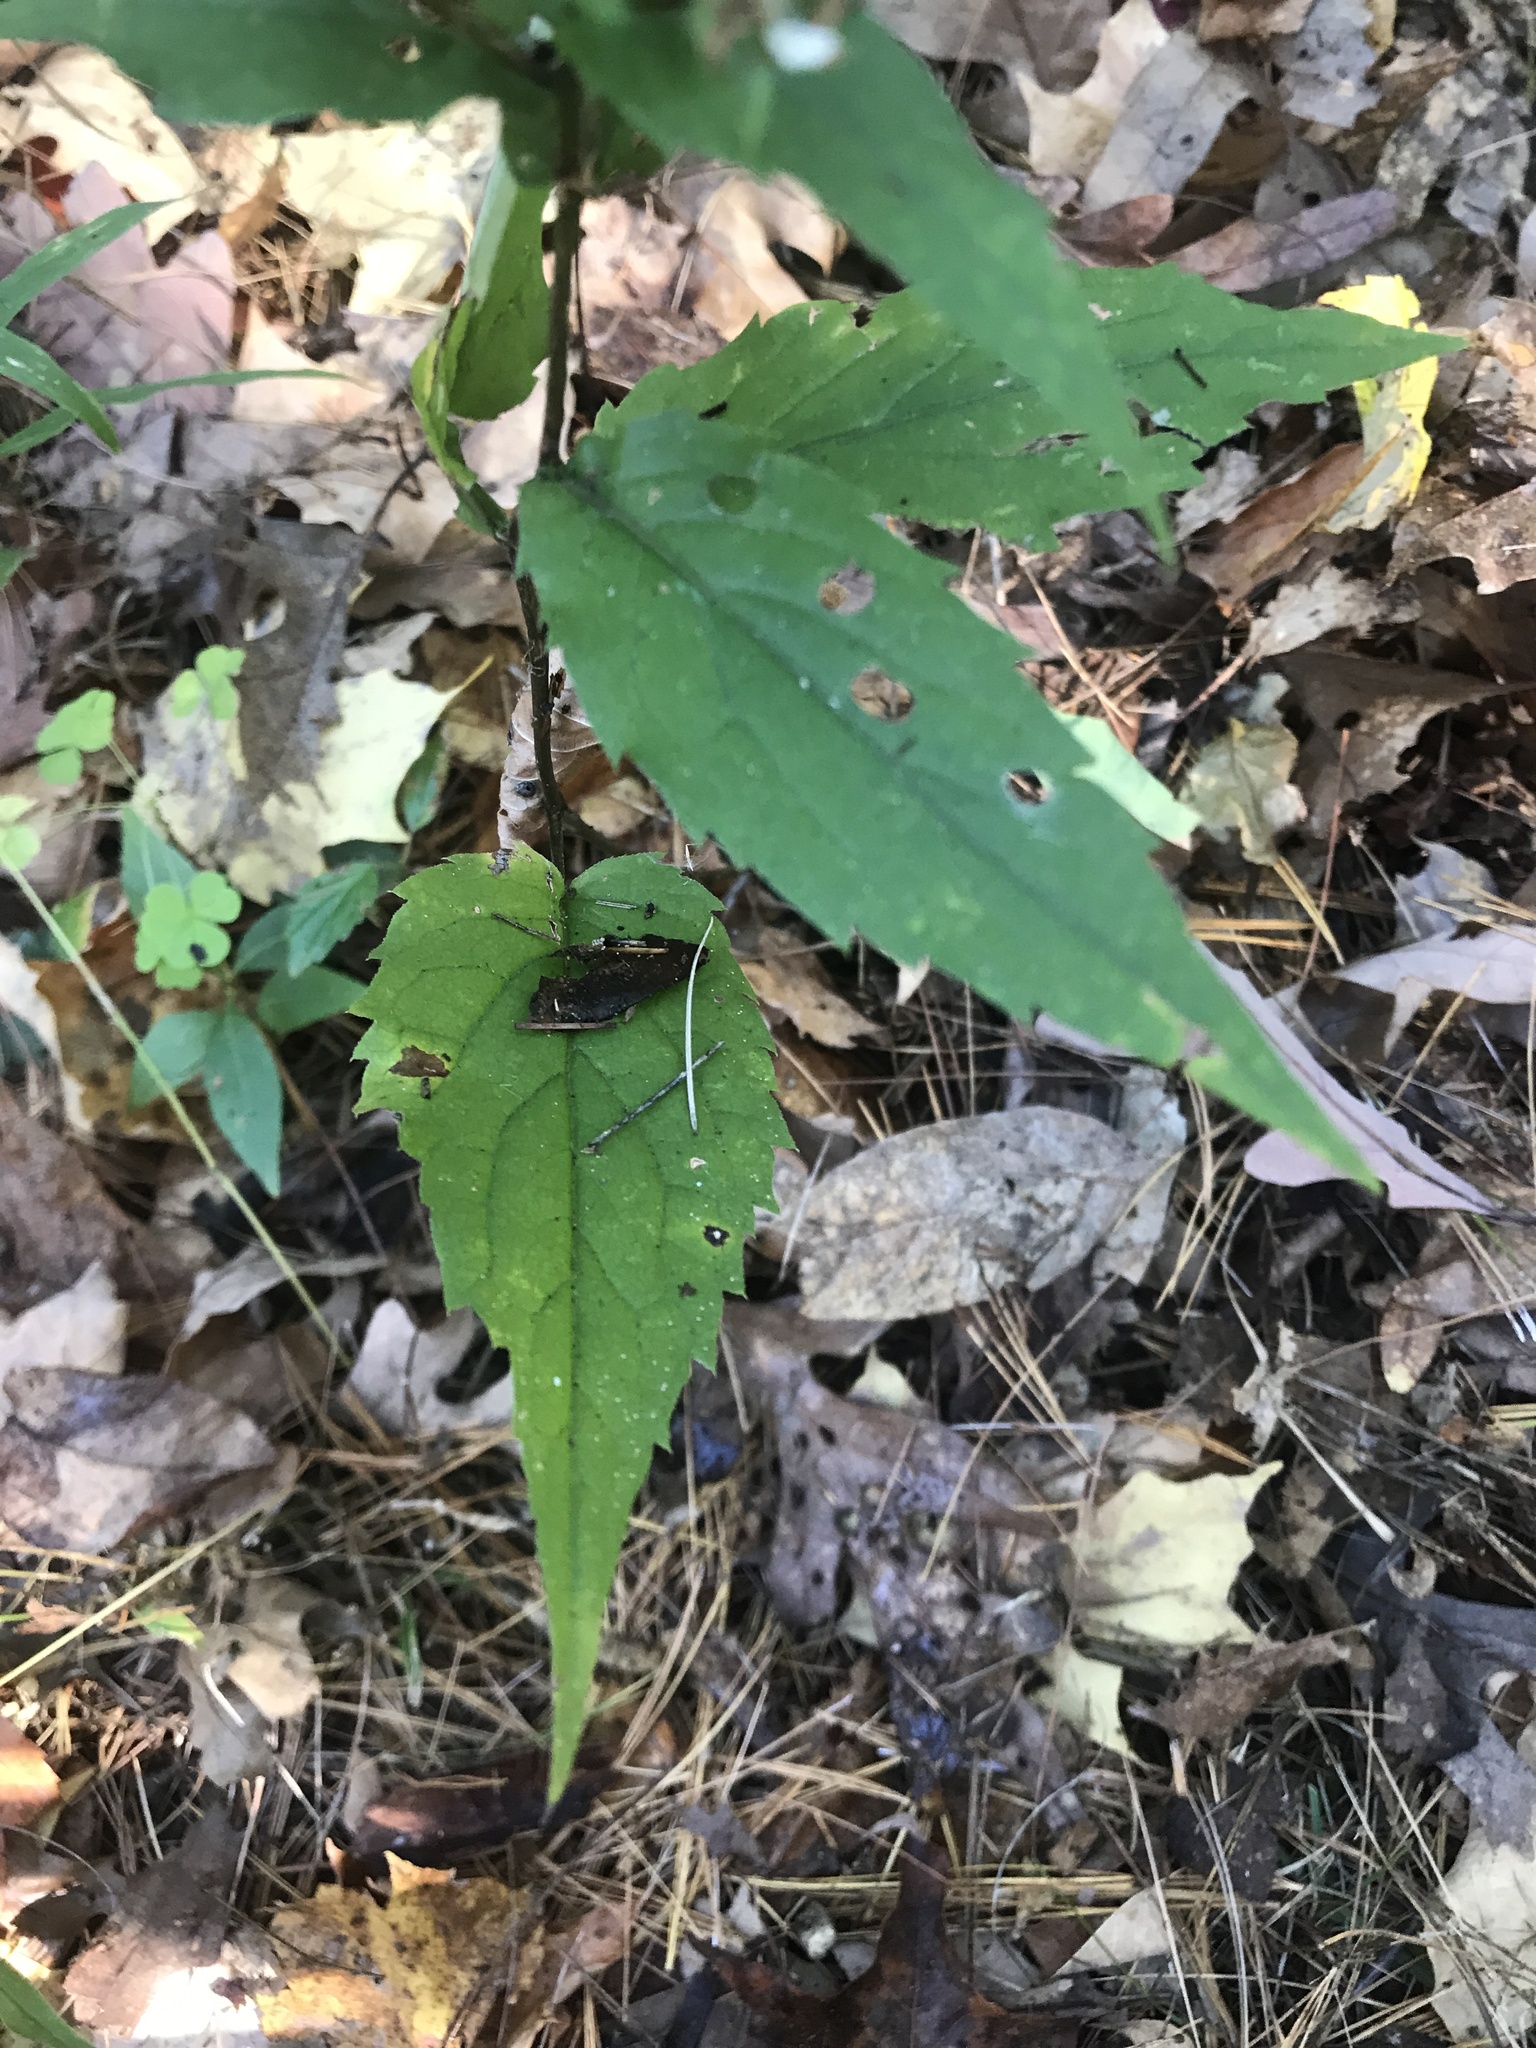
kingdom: Plantae
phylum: Tracheophyta
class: Magnoliopsida
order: Asterales
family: Asteraceae
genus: Eurybia
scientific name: Eurybia divaricata
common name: White wood aster
